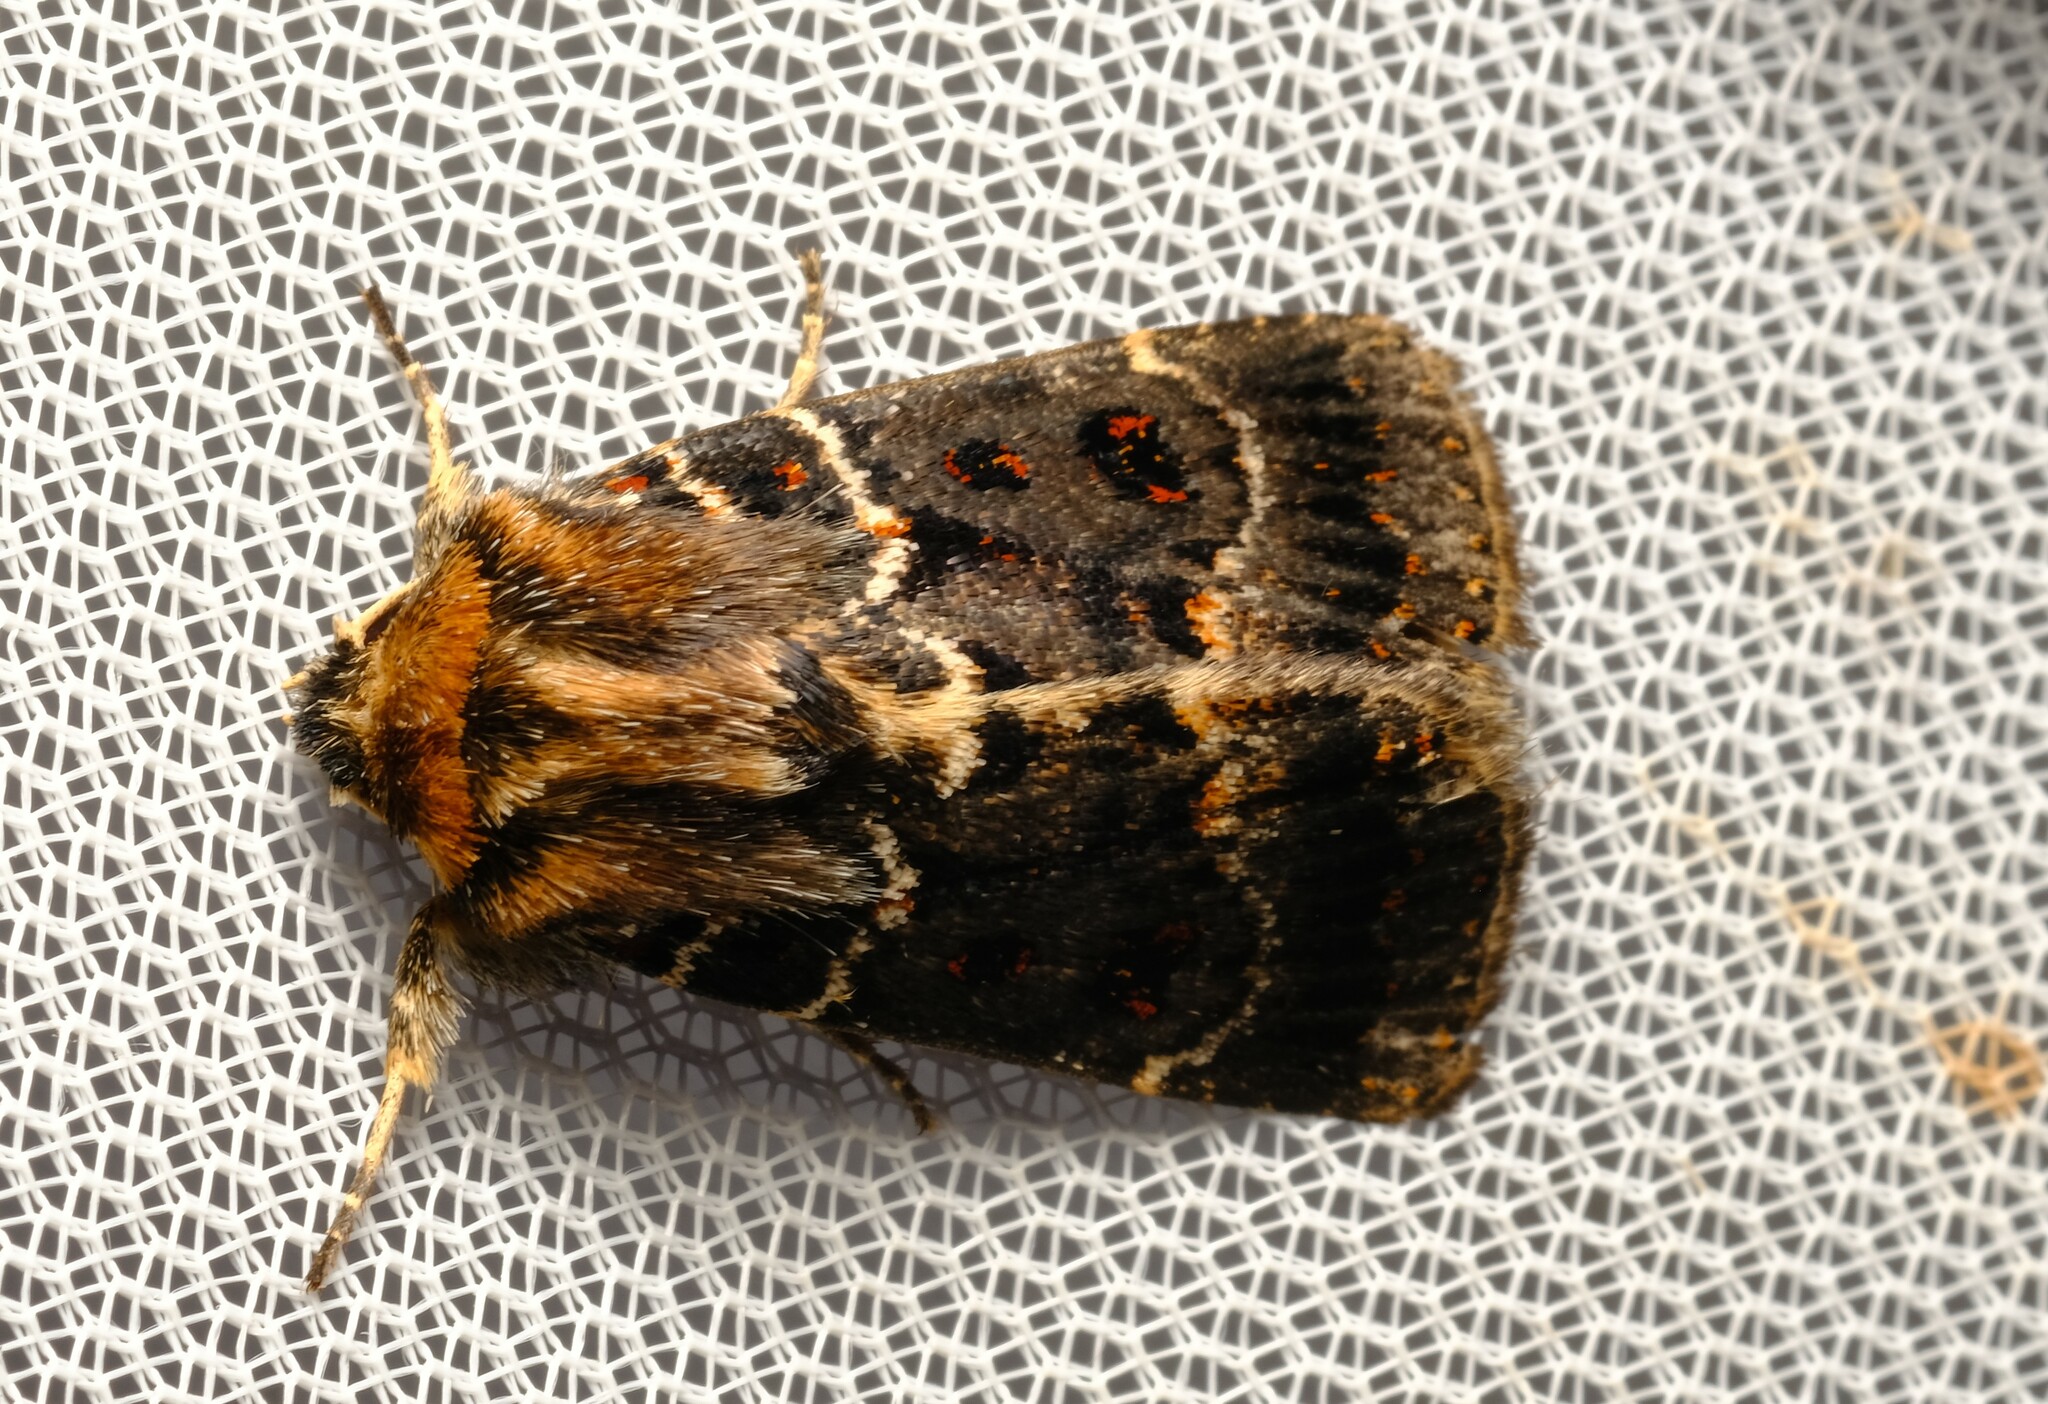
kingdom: Animalia
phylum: Arthropoda
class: Insecta
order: Lepidoptera
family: Noctuidae
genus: Proteuxoa
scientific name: Proteuxoa sanguinipuncta
